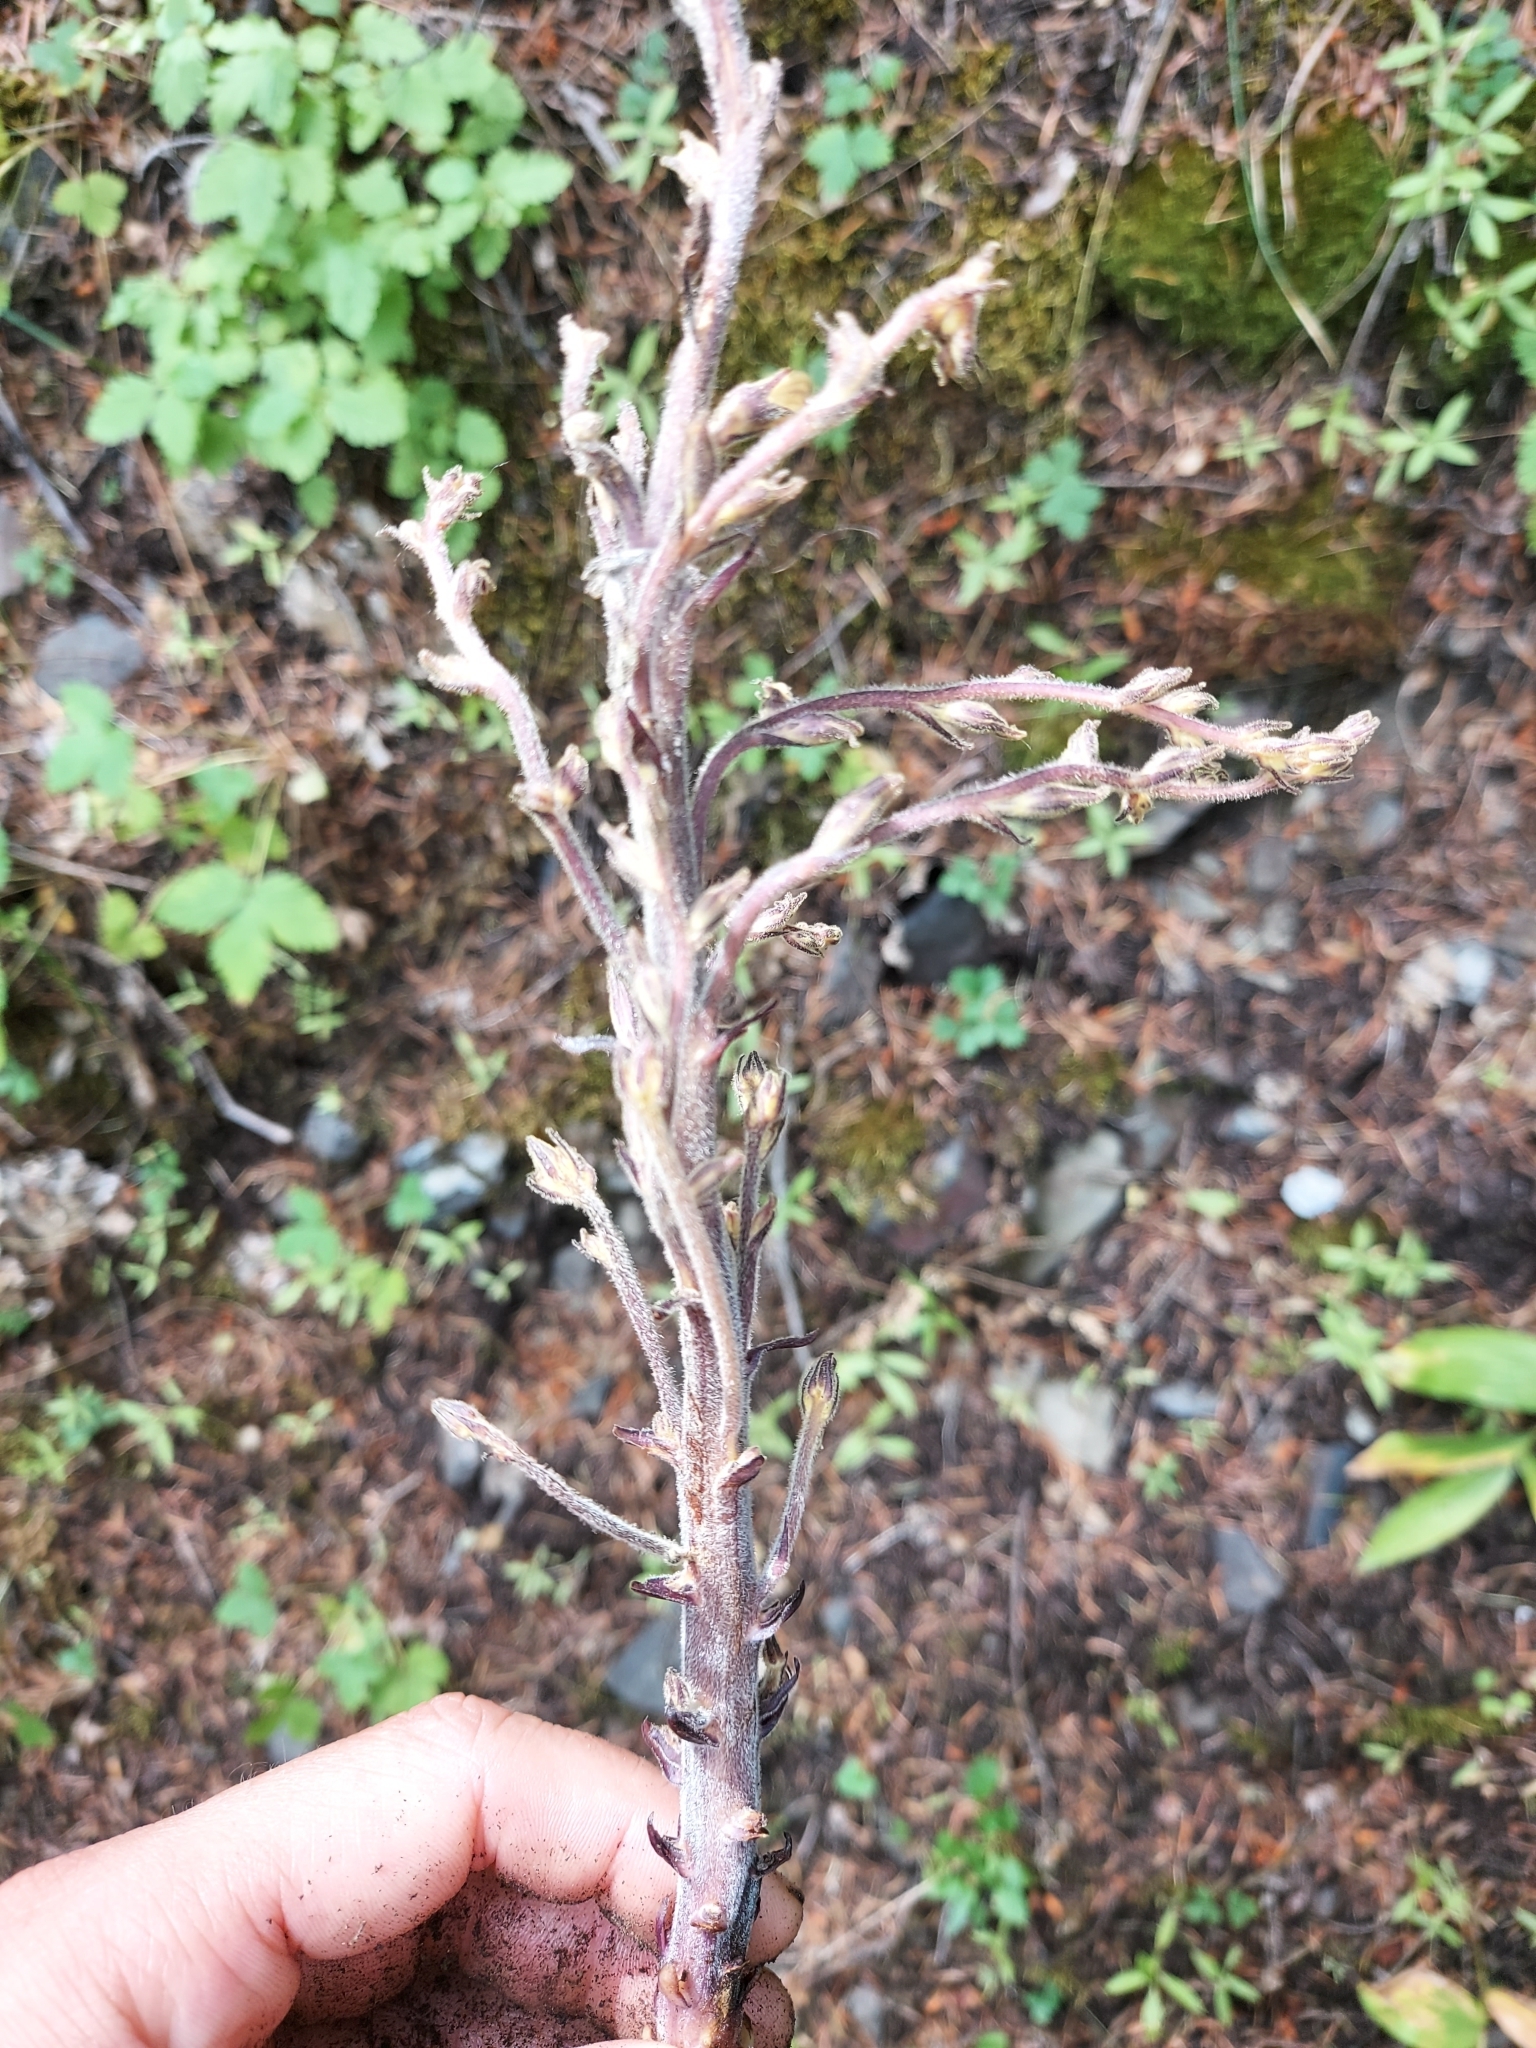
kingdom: Plantae
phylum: Tracheophyta
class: Magnoliopsida
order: Lamiales
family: Orobanchaceae
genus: Aphyllon
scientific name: Aphyllon pinorum
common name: Conifer broomrape
